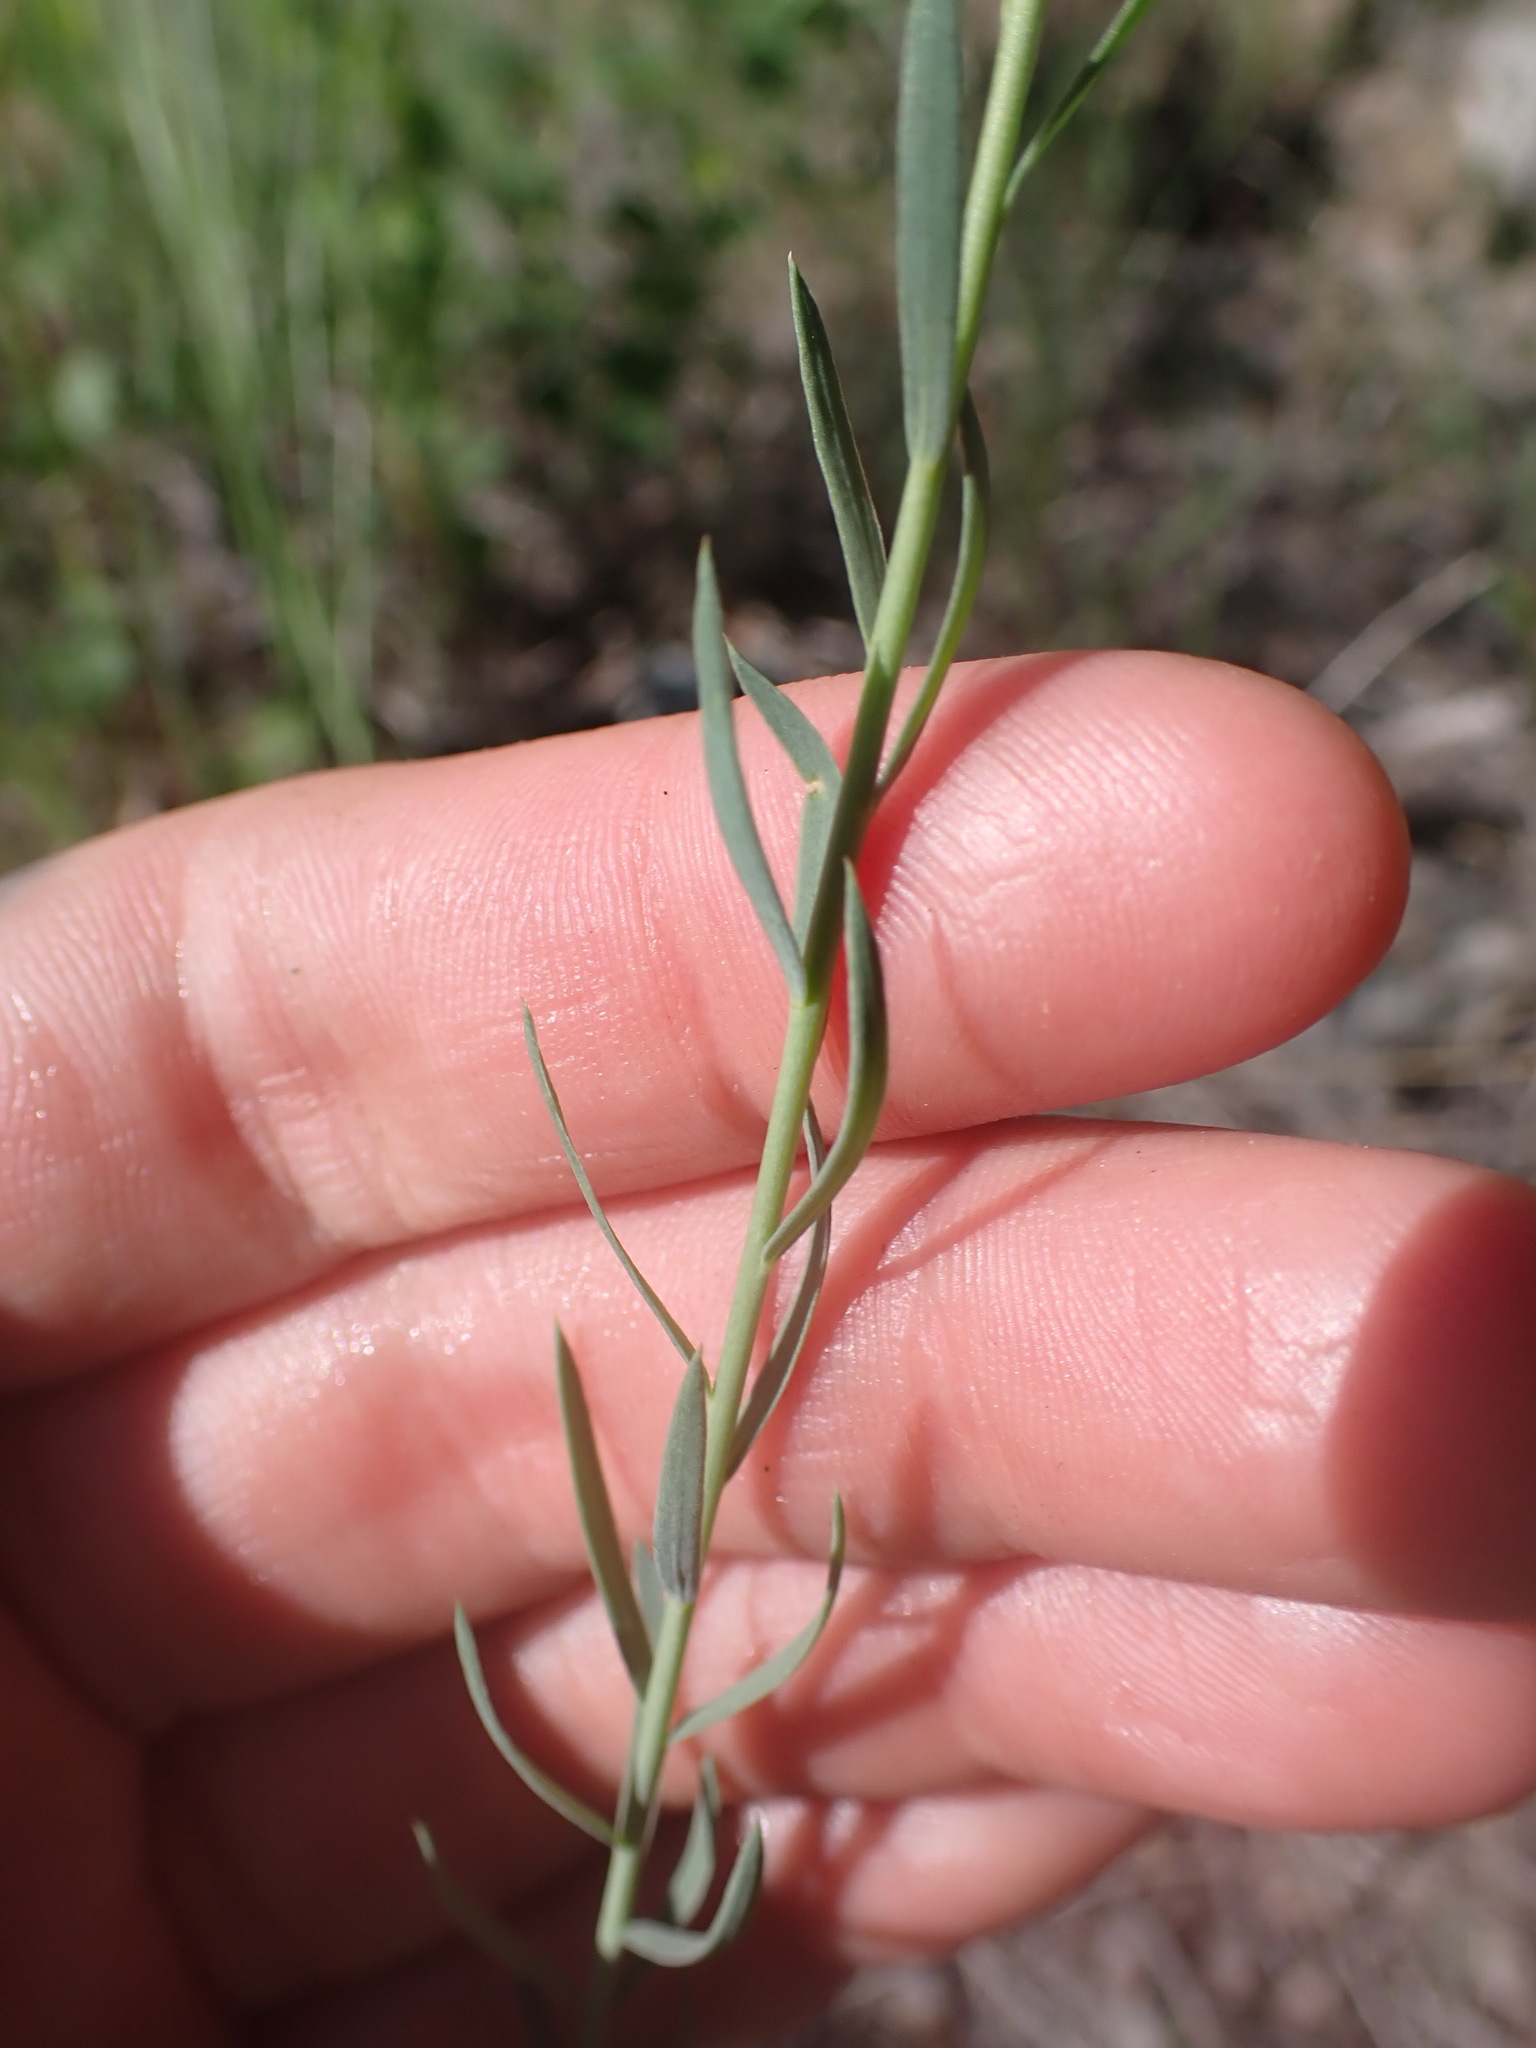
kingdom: Plantae
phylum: Tracheophyta
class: Magnoliopsida
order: Malpighiales
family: Linaceae
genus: Linum
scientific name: Linum lewisii
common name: Prairie flax
